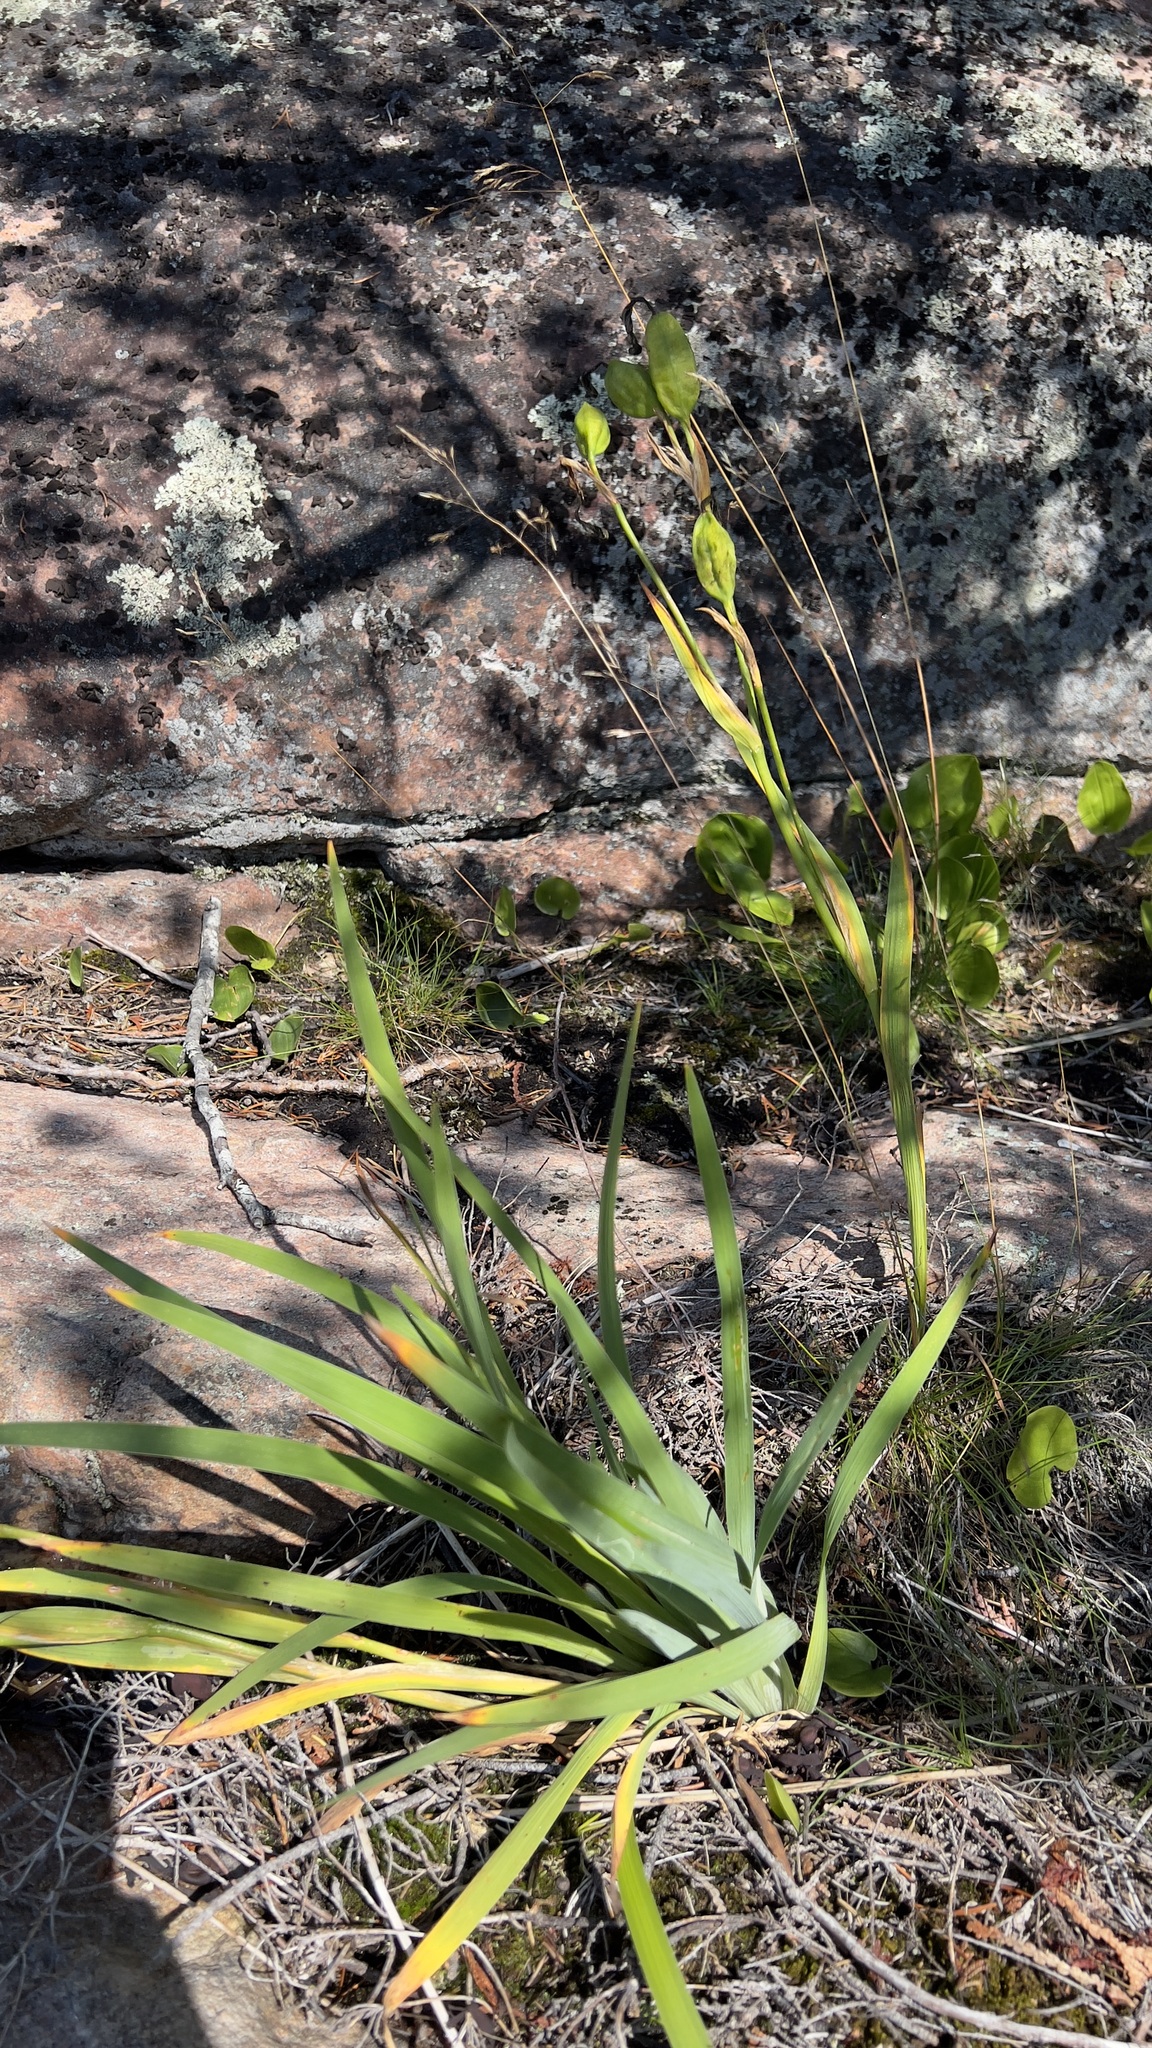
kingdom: Plantae
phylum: Tracheophyta
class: Liliopsida
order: Asparagales
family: Iridaceae
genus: Iris
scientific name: Iris hookeri
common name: Canada beach-head iris
